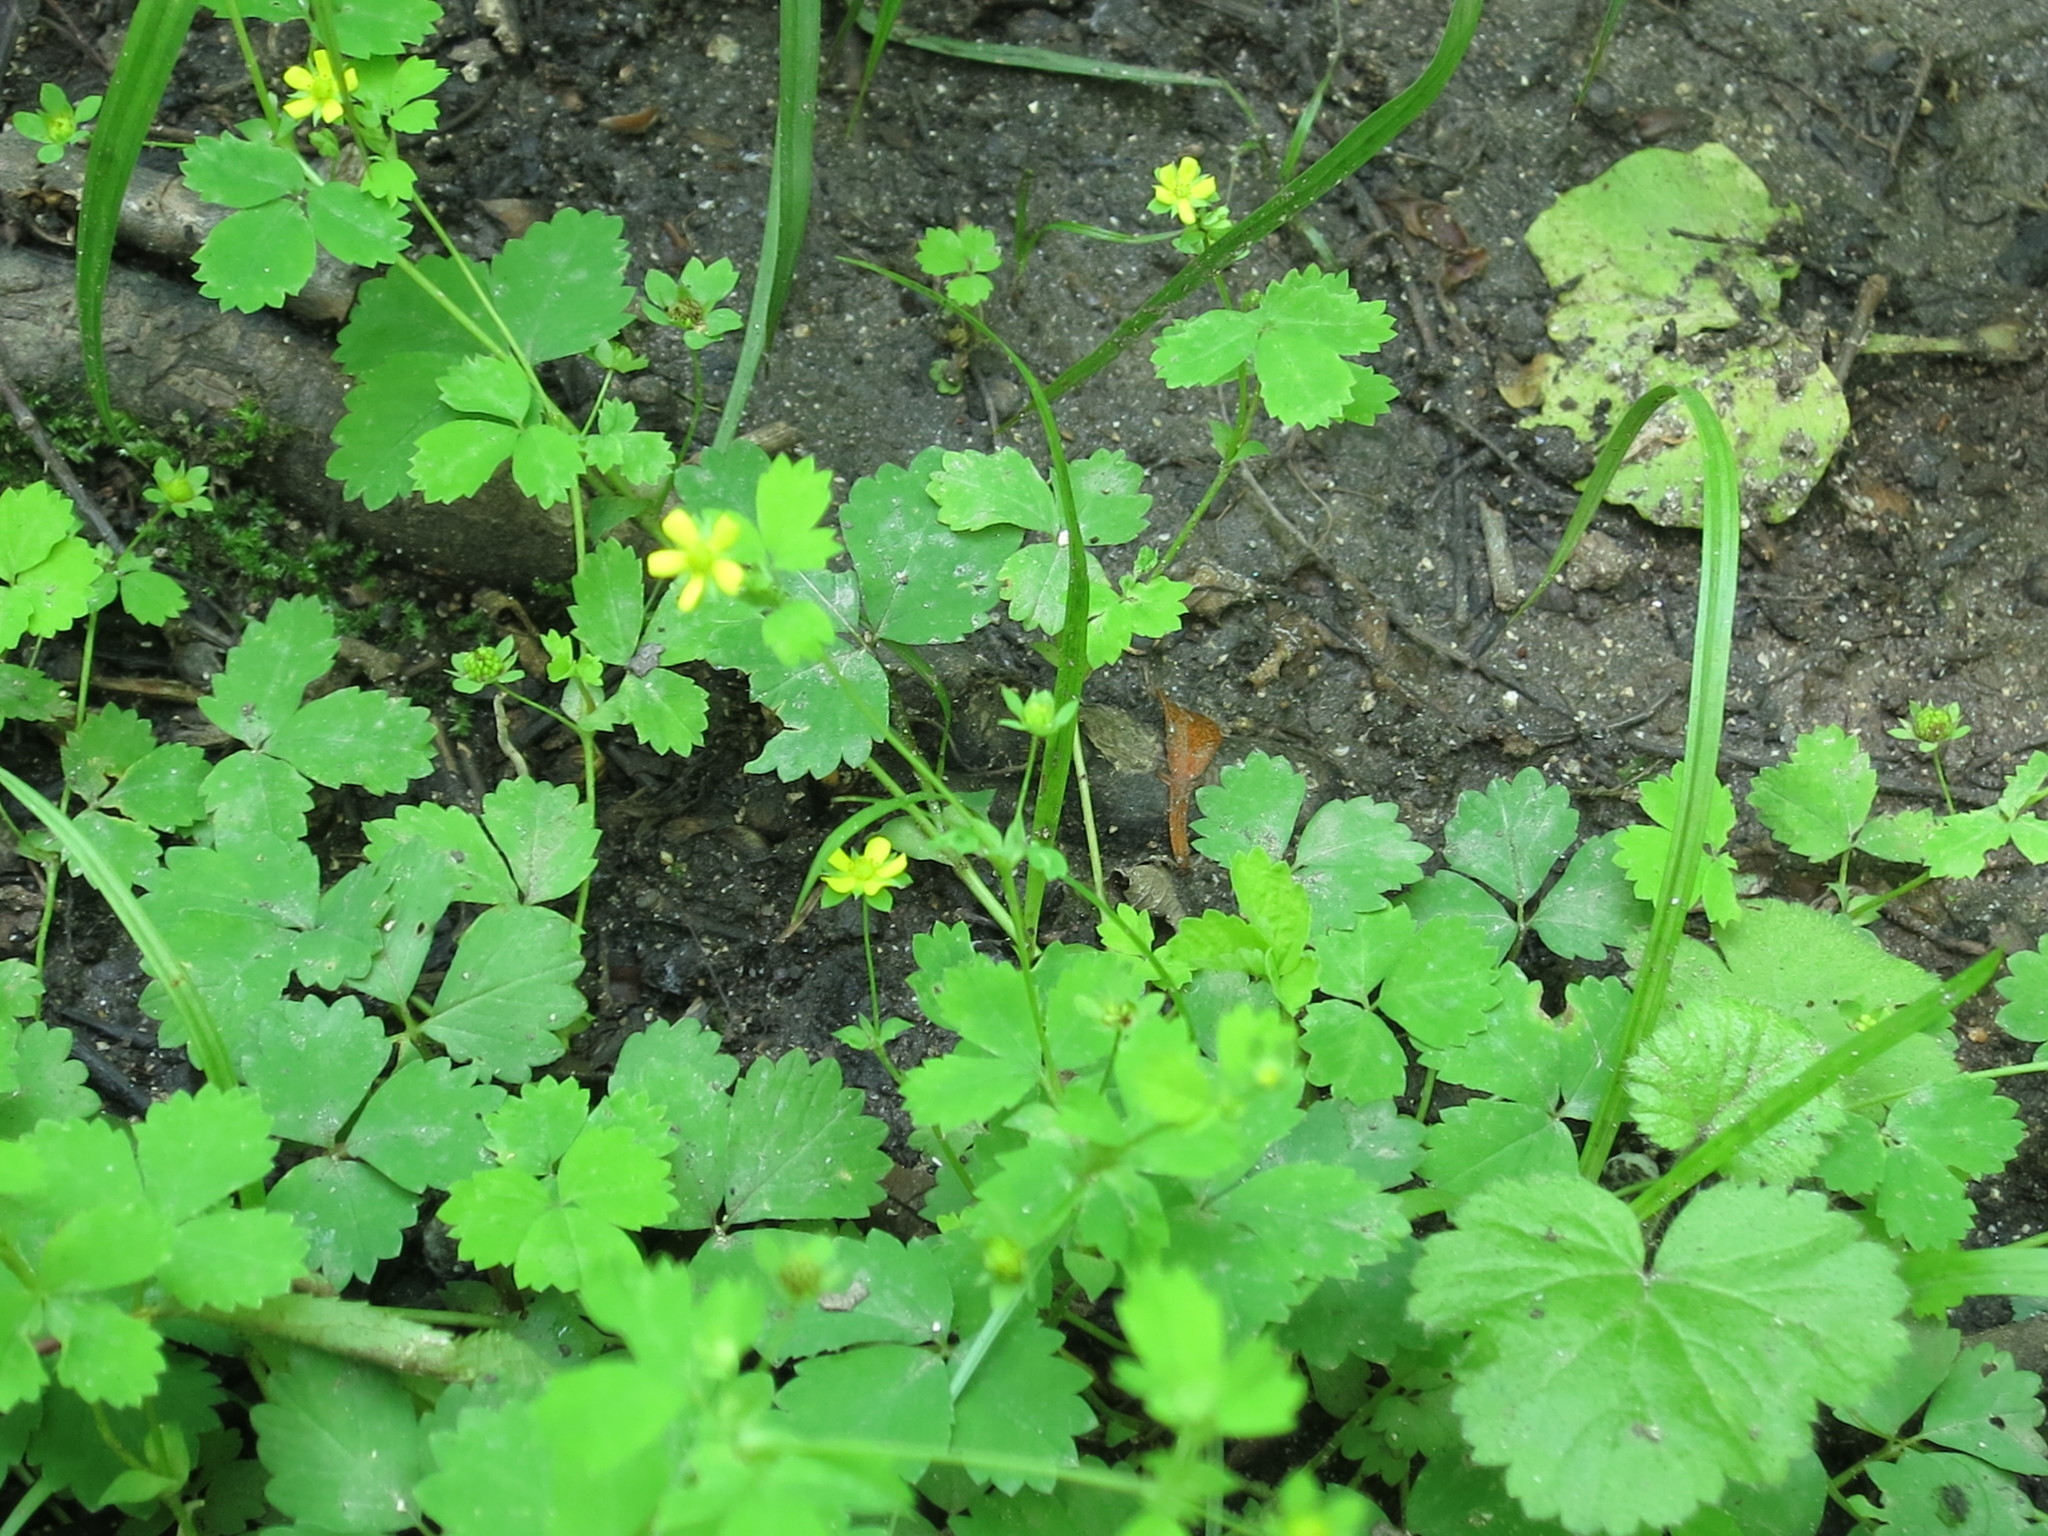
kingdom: Plantae
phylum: Tracheophyta
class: Magnoliopsida
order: Rosales
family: Rosaceae
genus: Potentilla
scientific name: Potentilla centigrana
